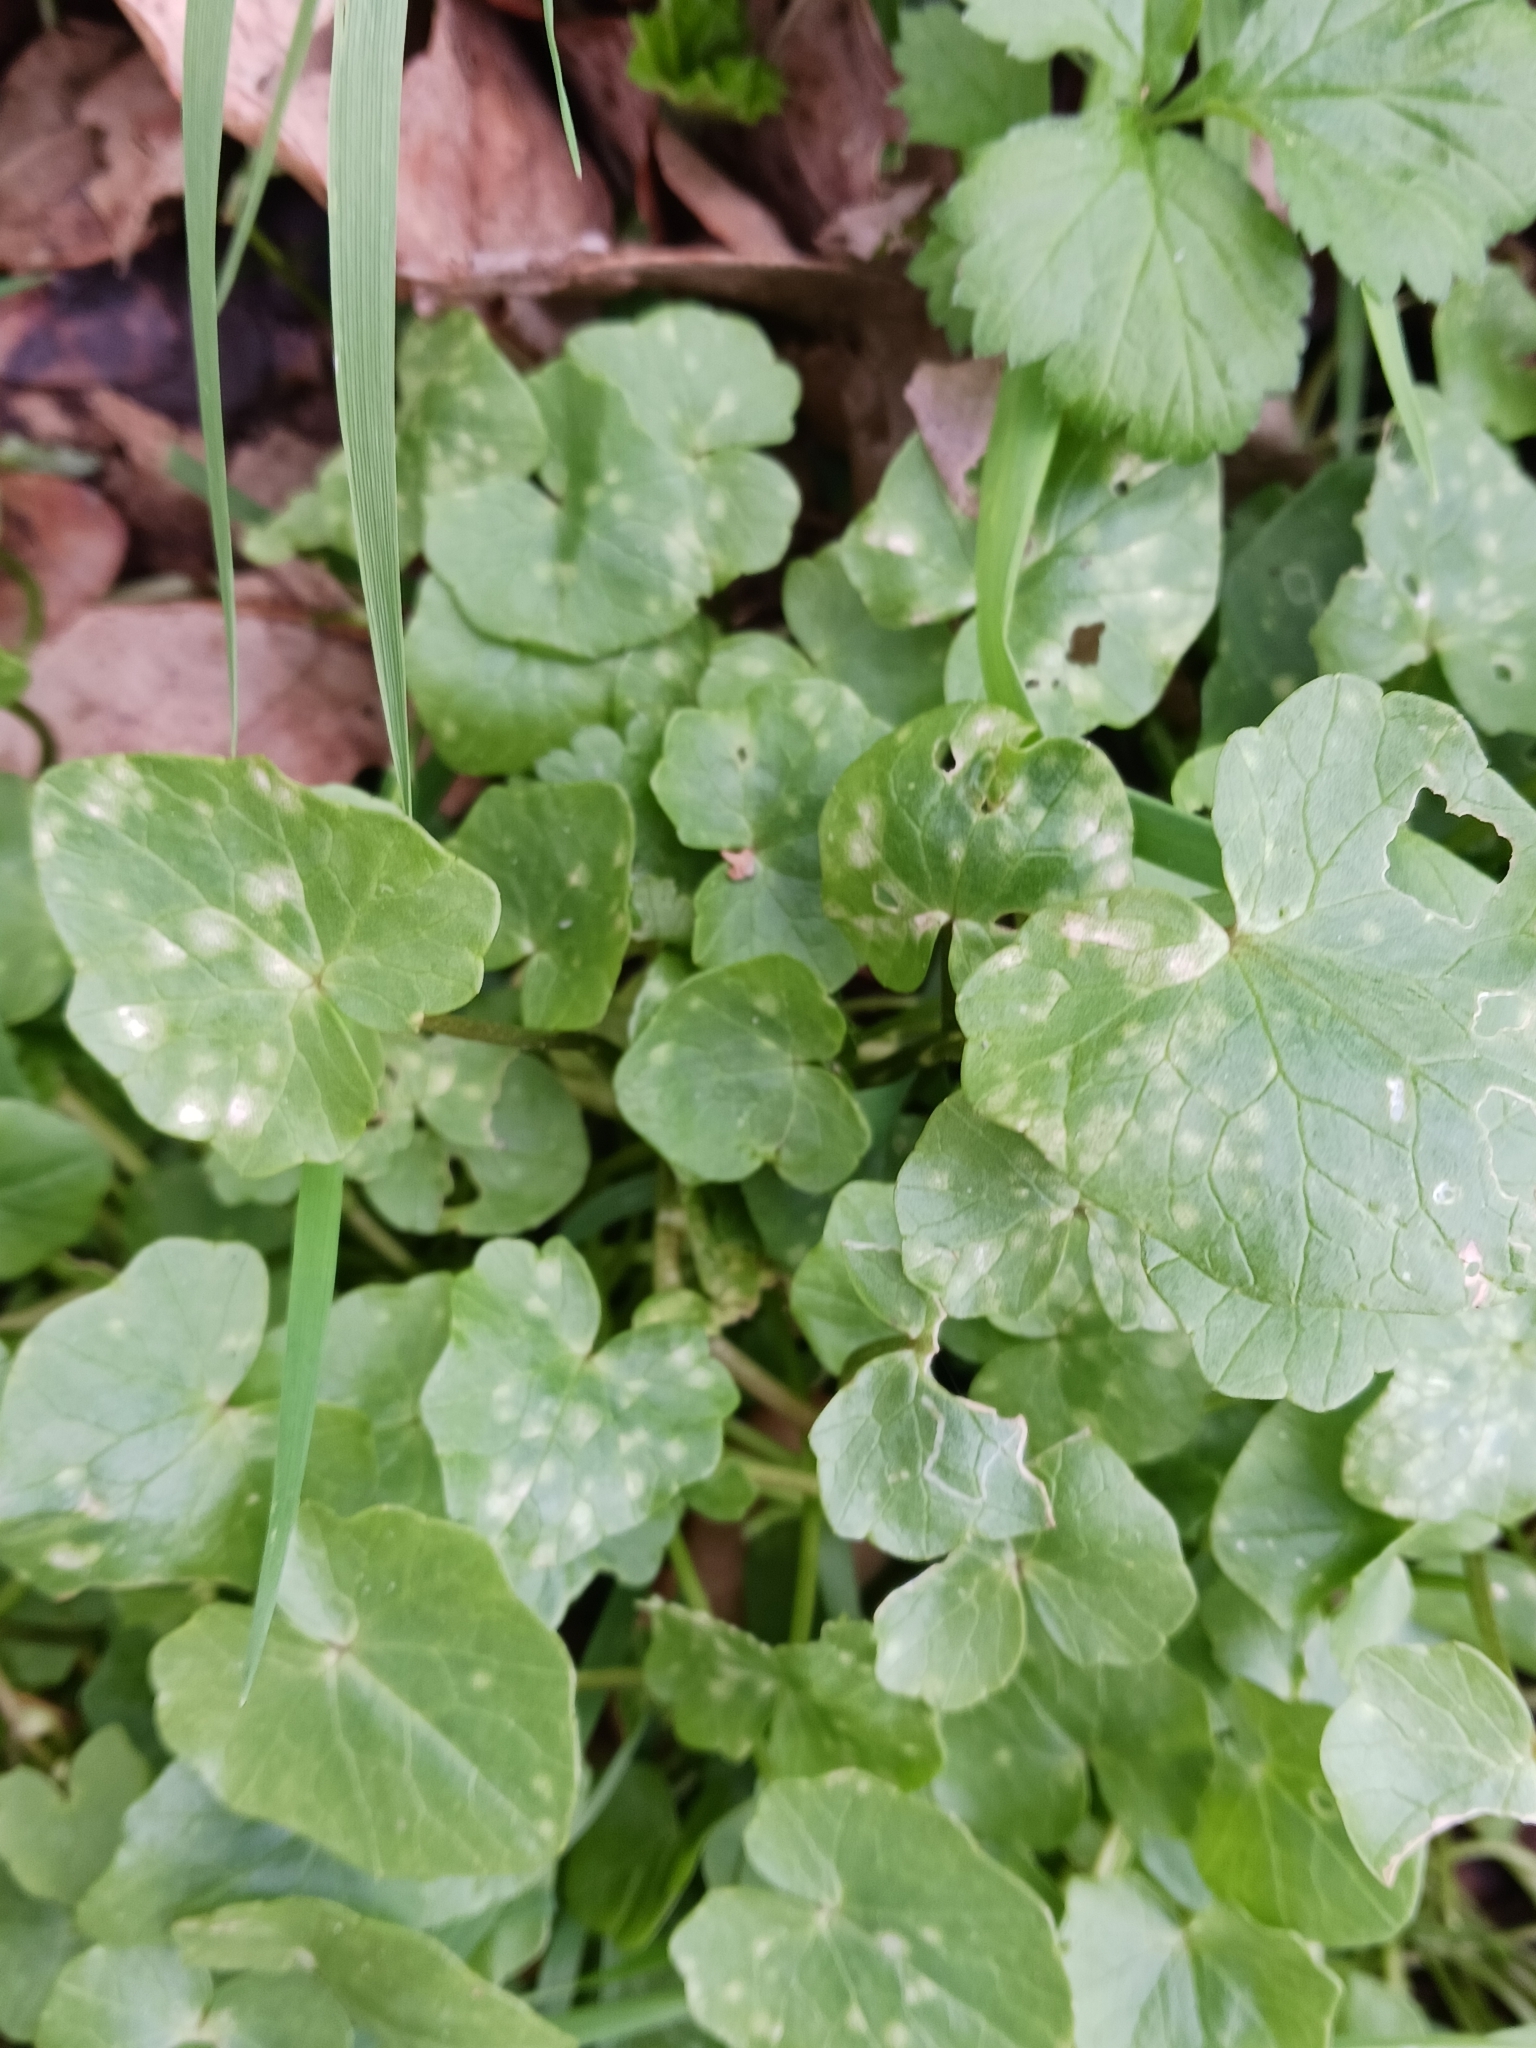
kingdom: Fungi
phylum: Basidiomycota
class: Exobasidiomycetes
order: Entylomatales
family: Entylomataceae
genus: Entyloma
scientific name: Entyloma ficariae
